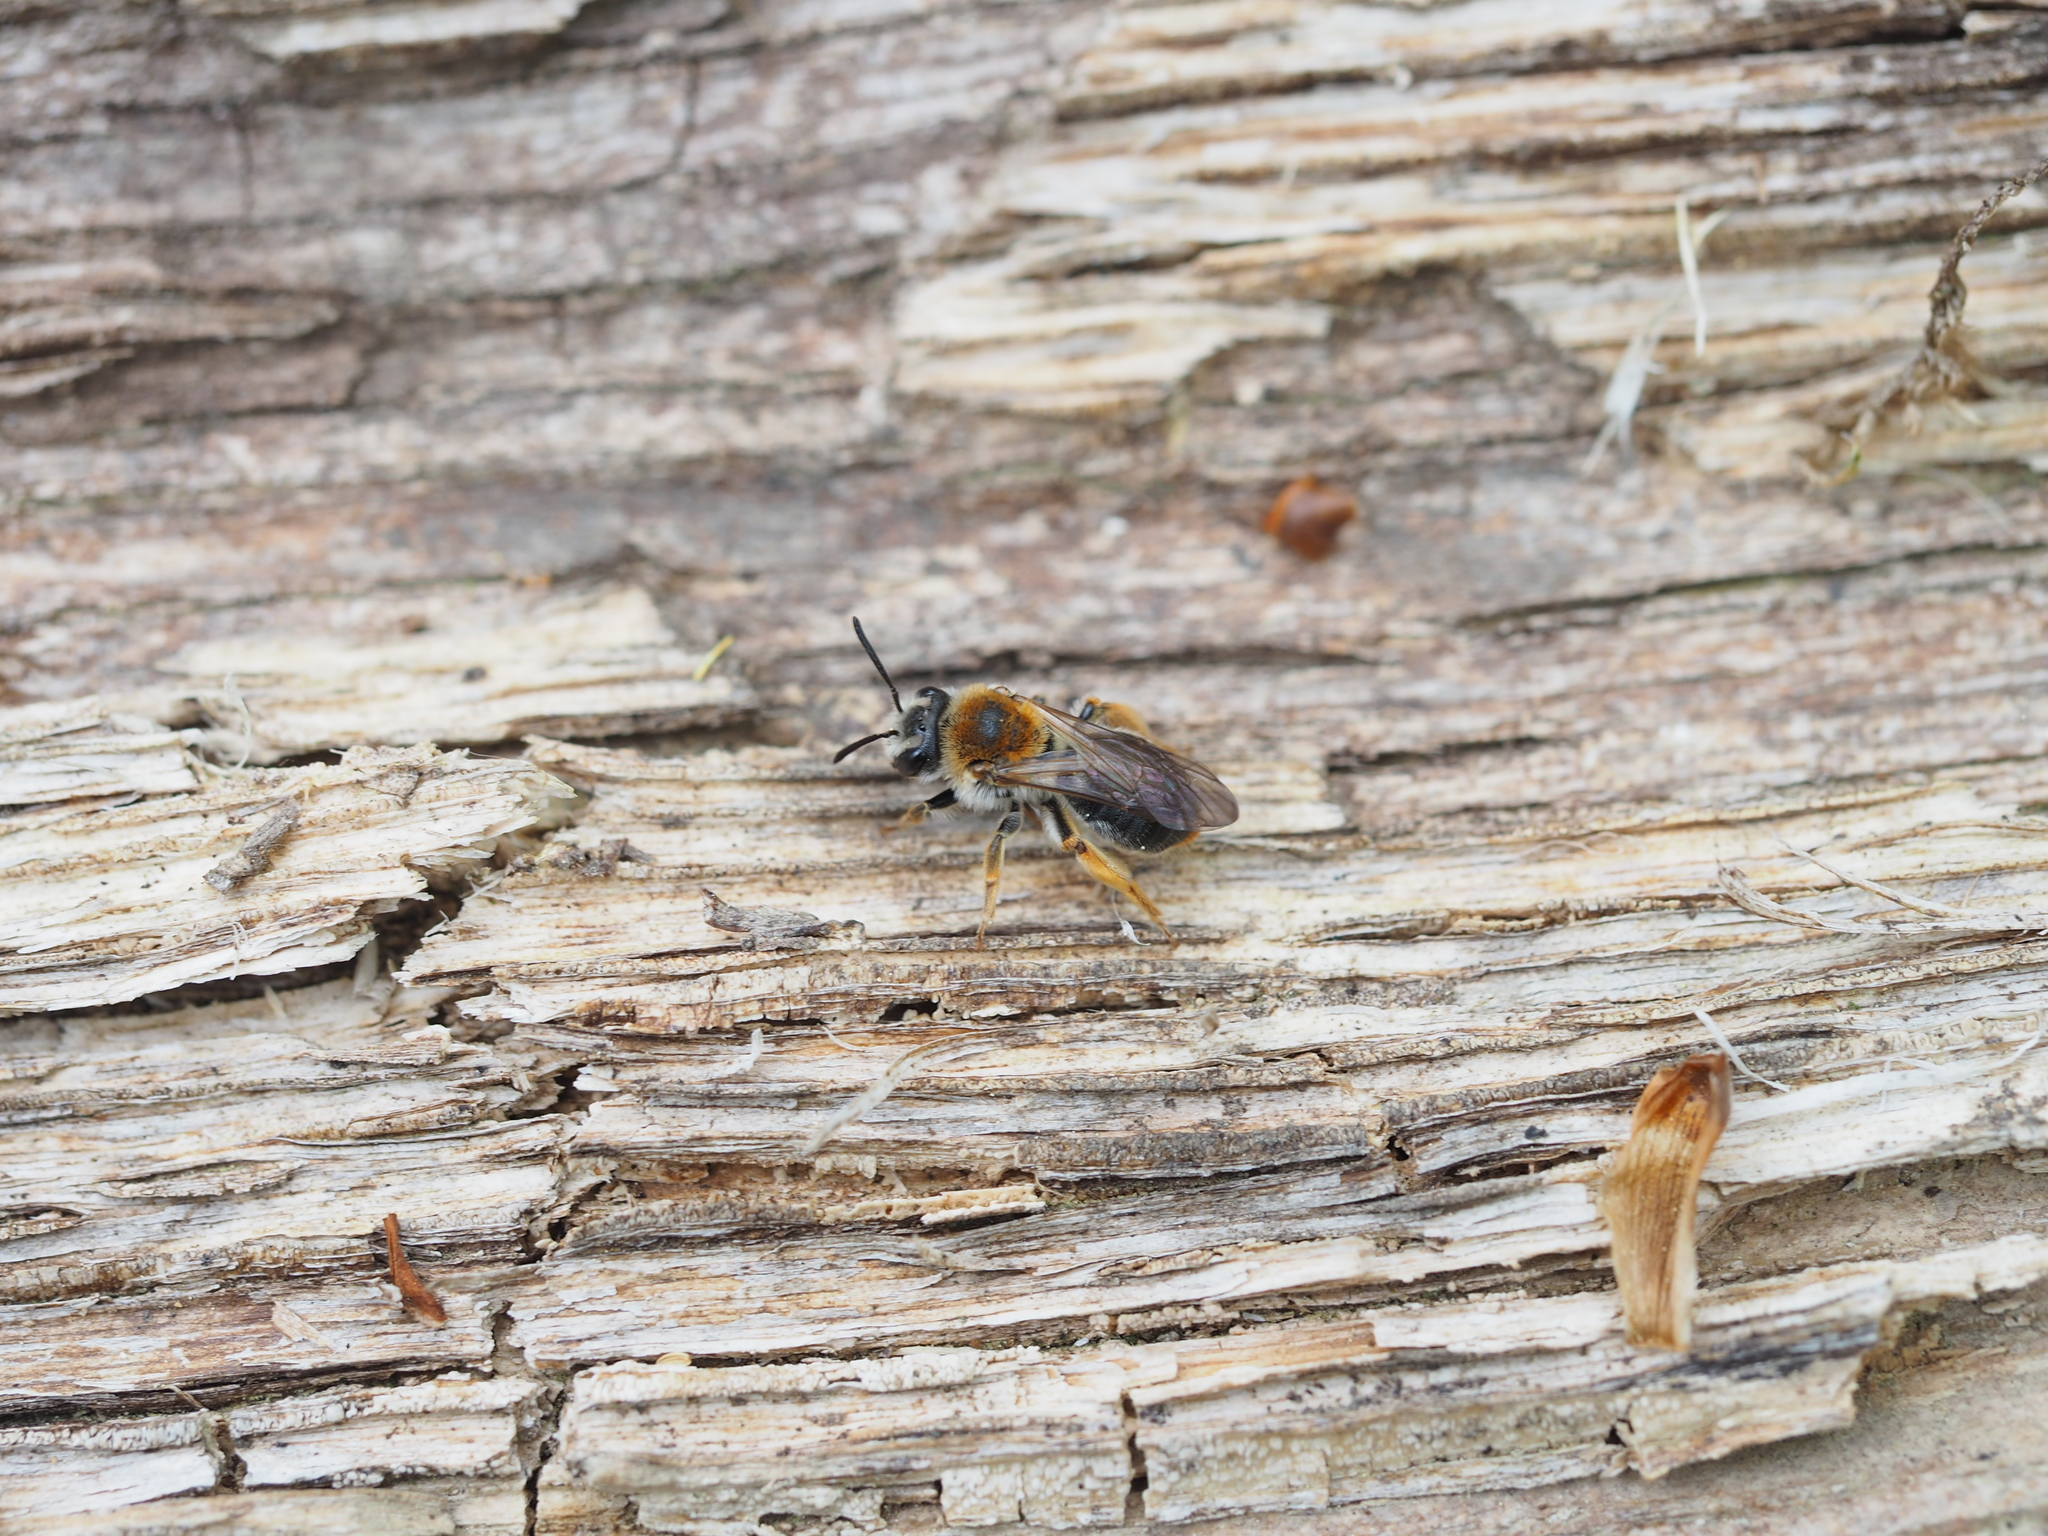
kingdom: Animalia
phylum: Arthropoda
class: Insecta
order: Hymenoptera
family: Andrenidae
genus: Andrena
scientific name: Andrena haemorrhoa
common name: Early mining bee
